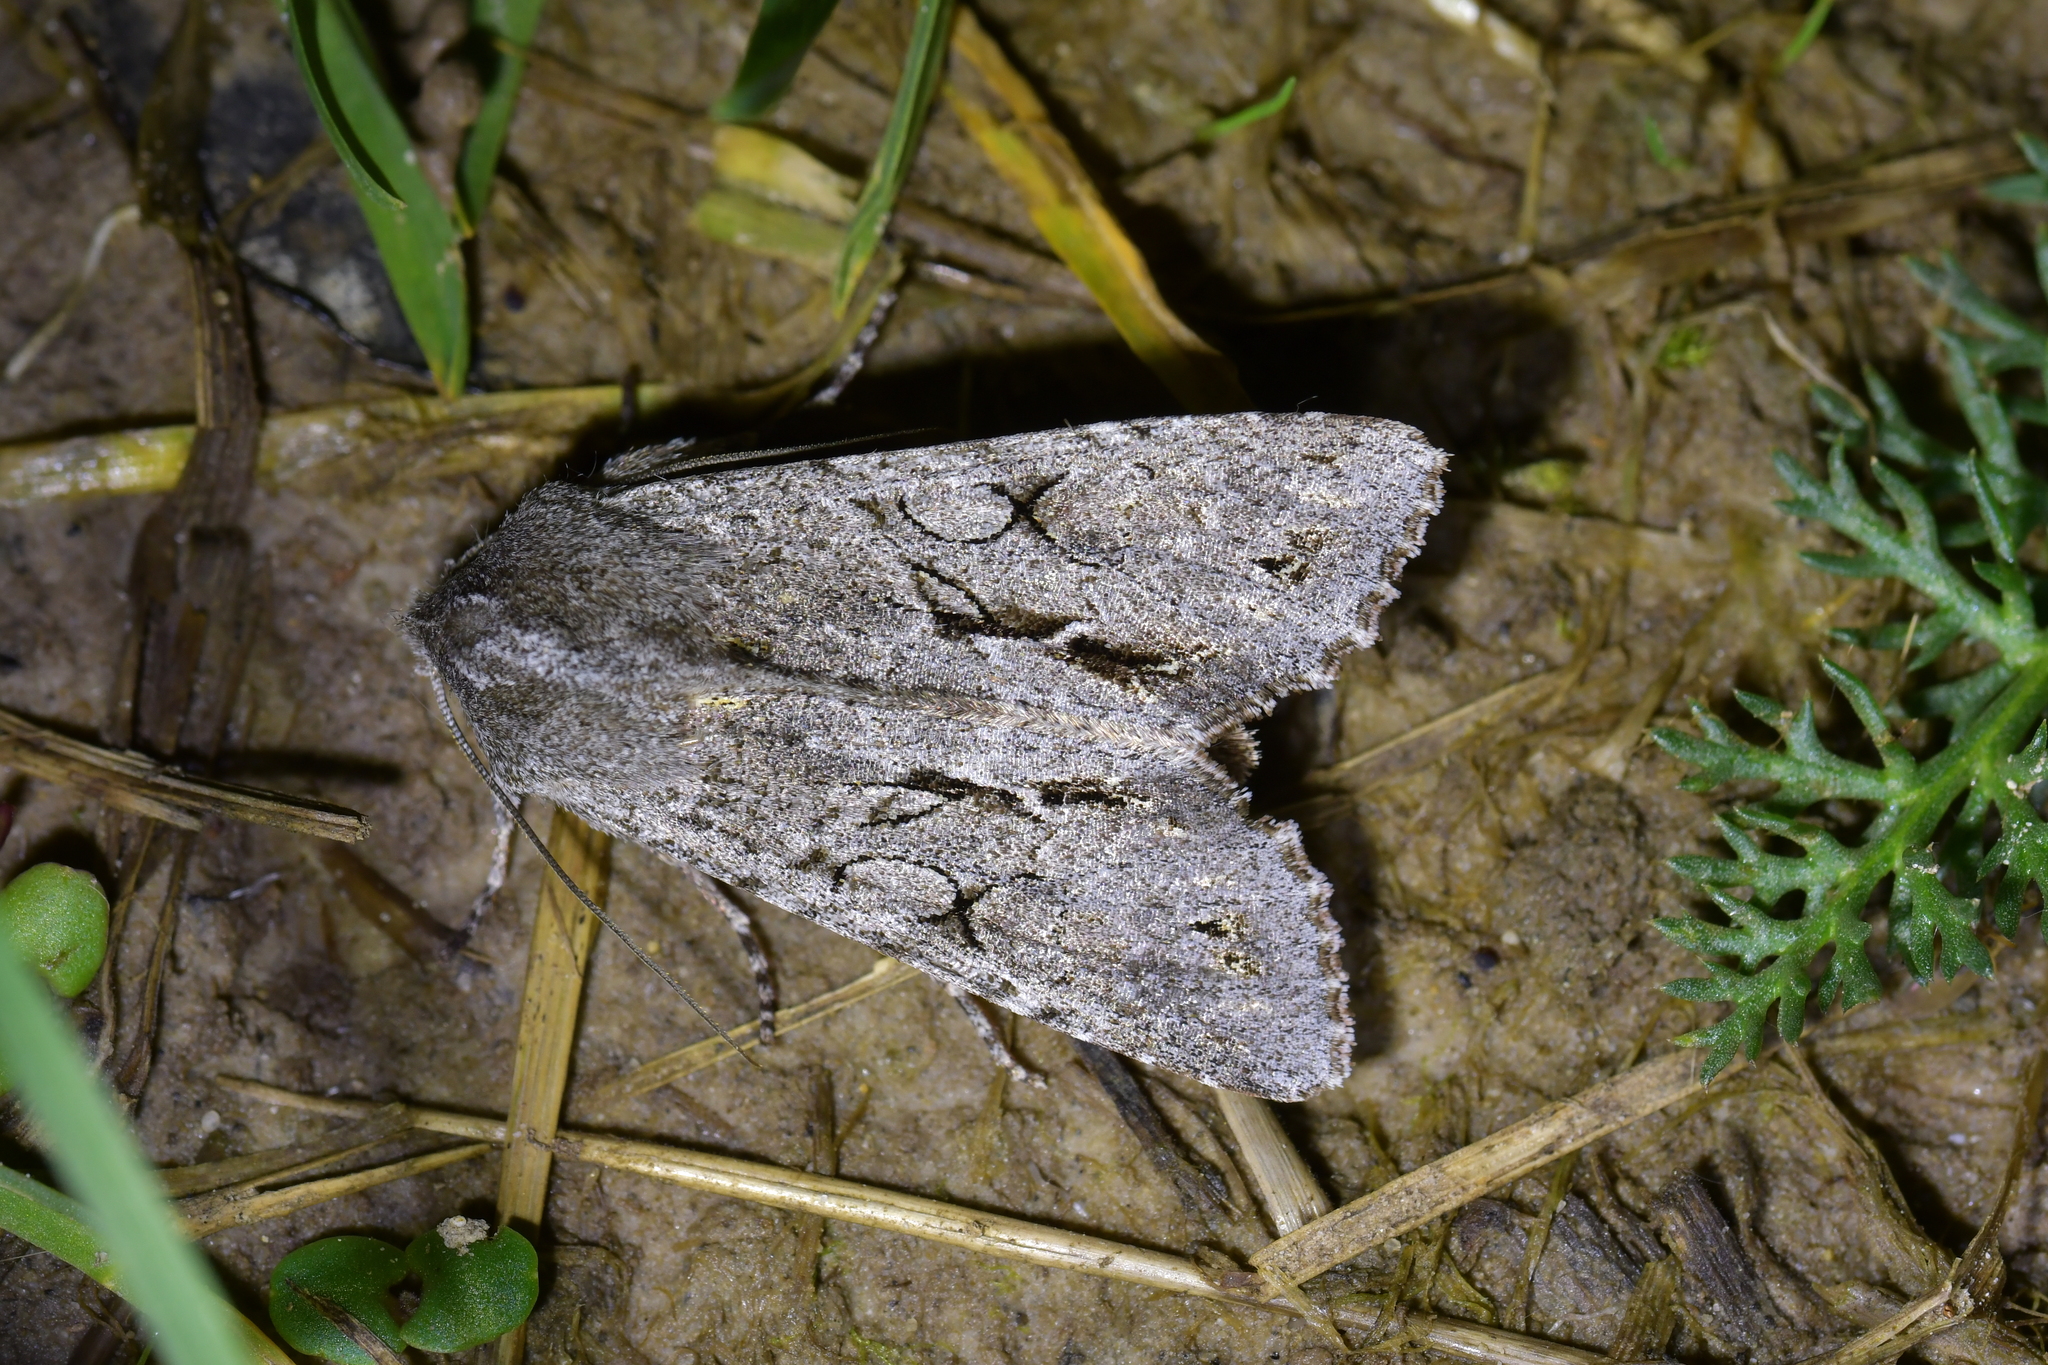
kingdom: Animalia
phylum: Arthropoda
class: Insecta
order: Lepidoptera
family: Noctuidae
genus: Ichneutica
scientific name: Ichneutica
